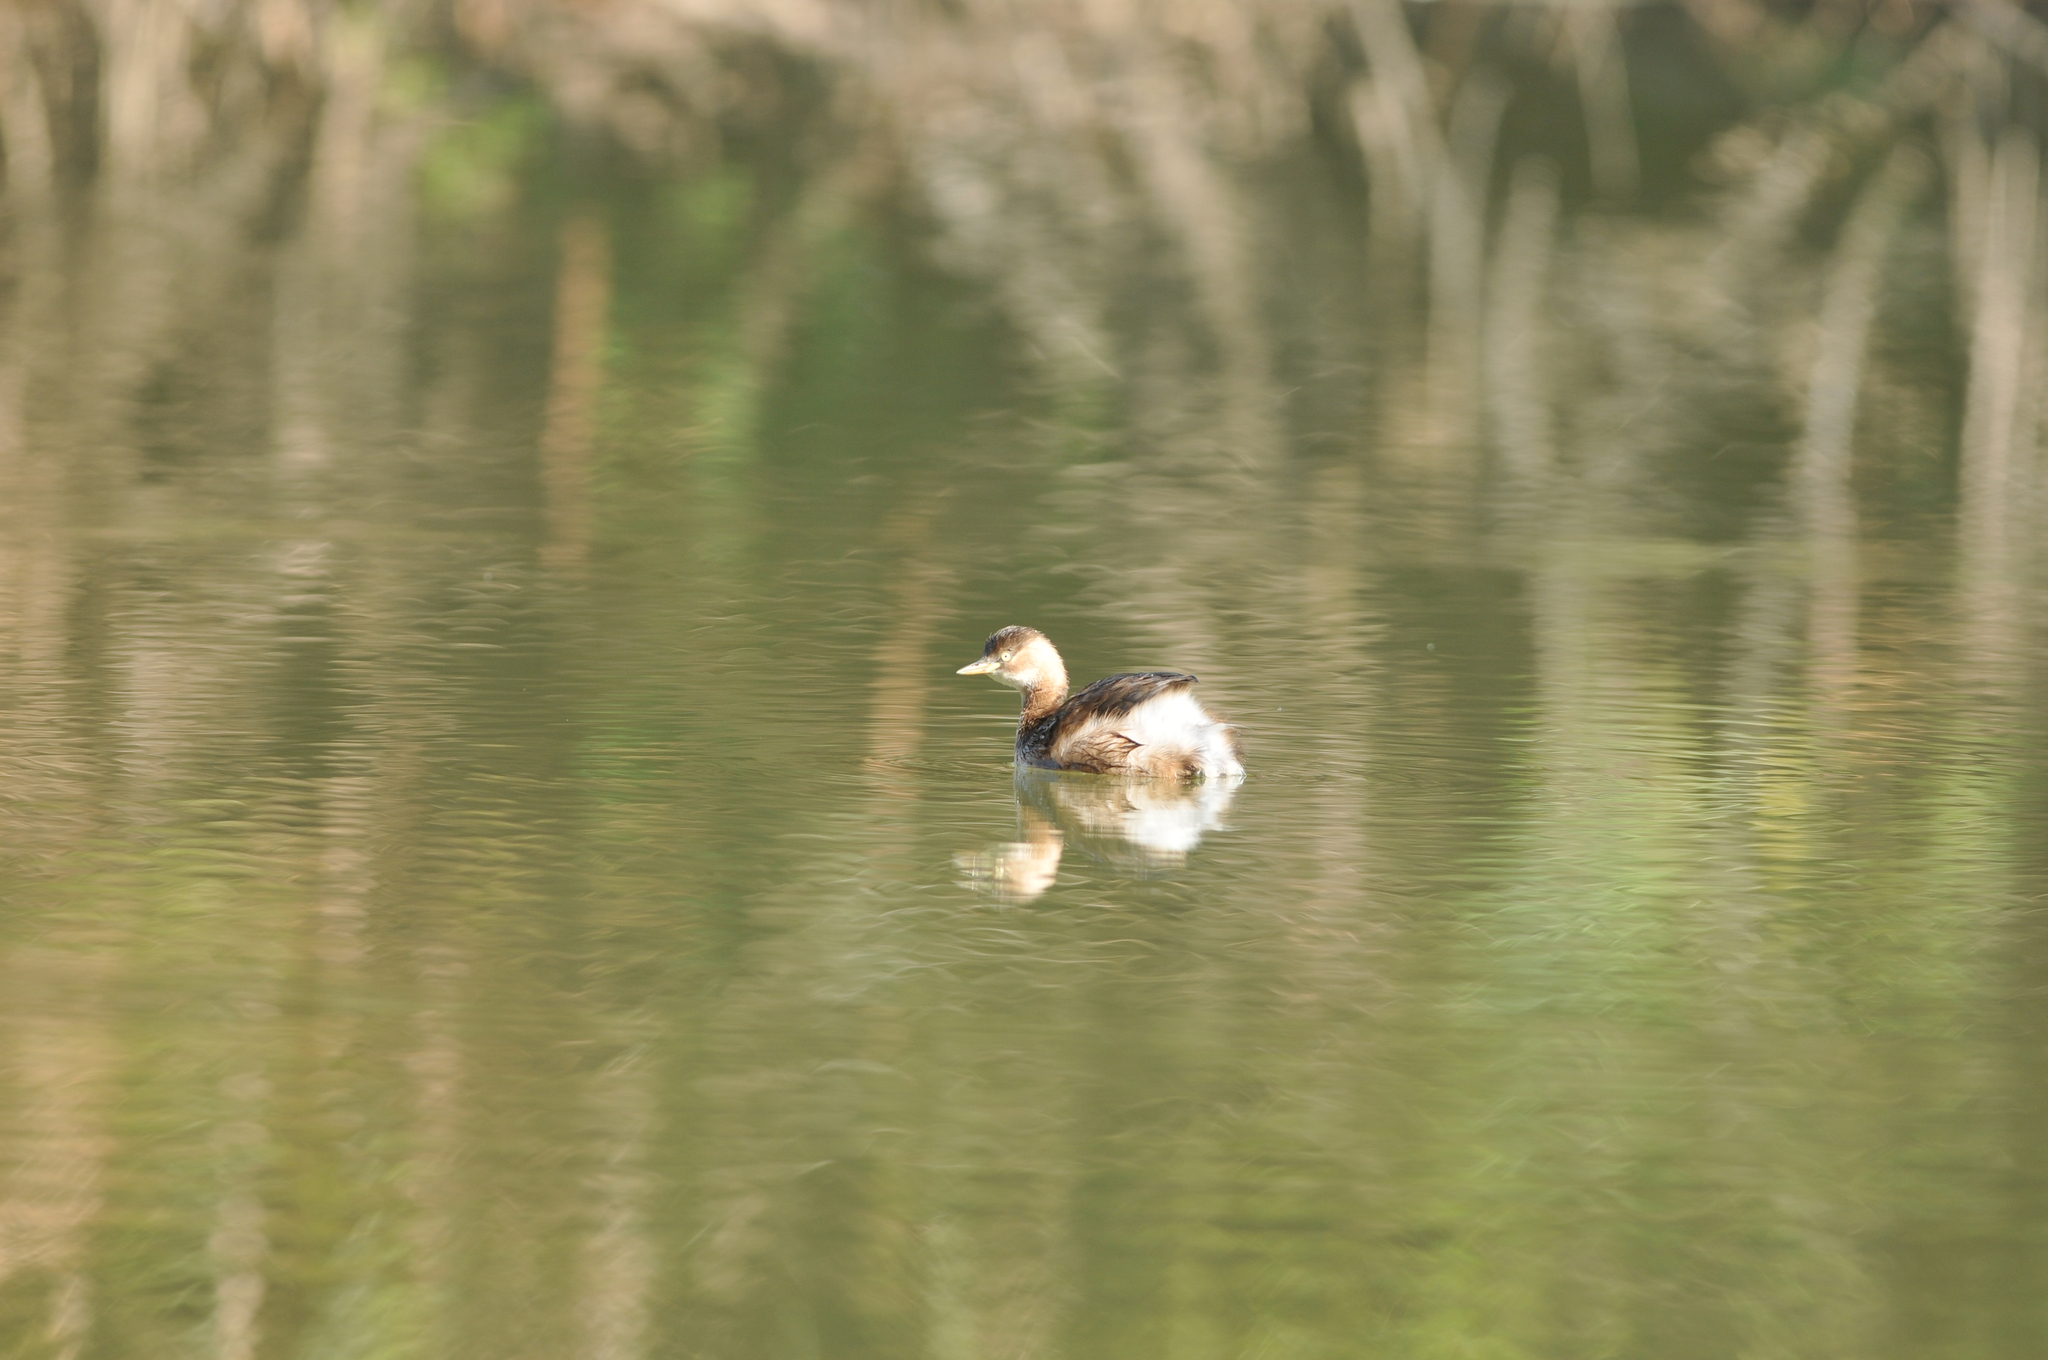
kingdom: Animalia
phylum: Chordata
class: Aves
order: Podicipediformes
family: Podicipedidae
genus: Tachybaptus
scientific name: Tachybaptus ruficollis
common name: Little grebe
